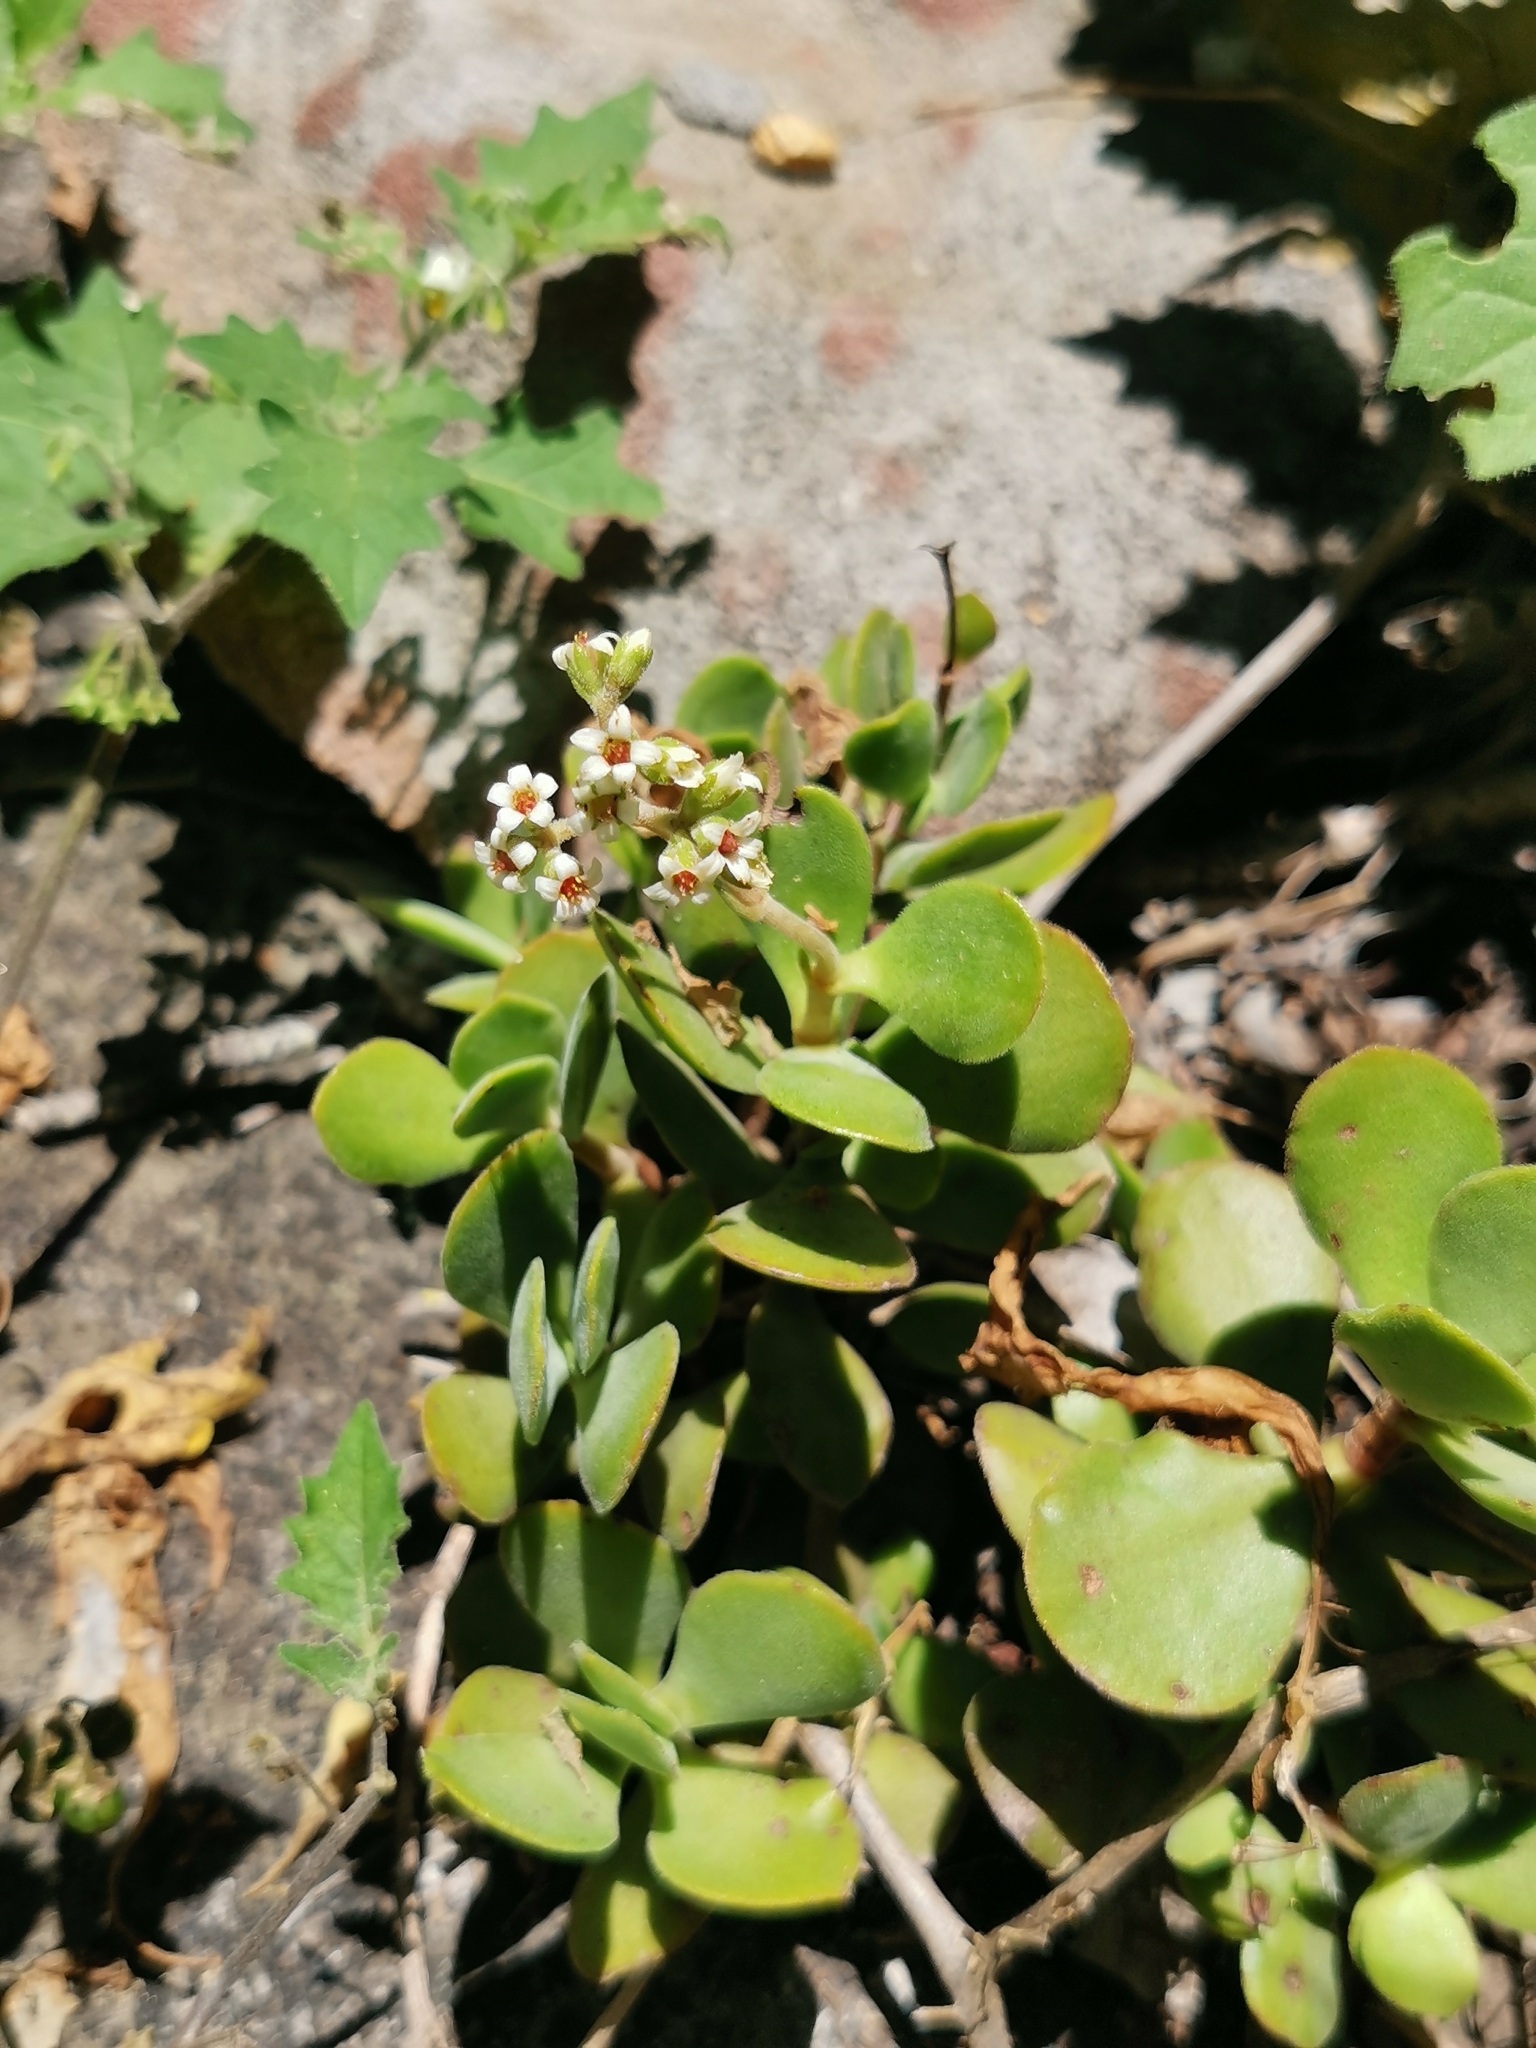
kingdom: Plantae
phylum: Tracheophyta
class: Magnoliopsida
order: Saxifragales
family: Crassulaceae
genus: Crassula
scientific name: Crassula globularioides
